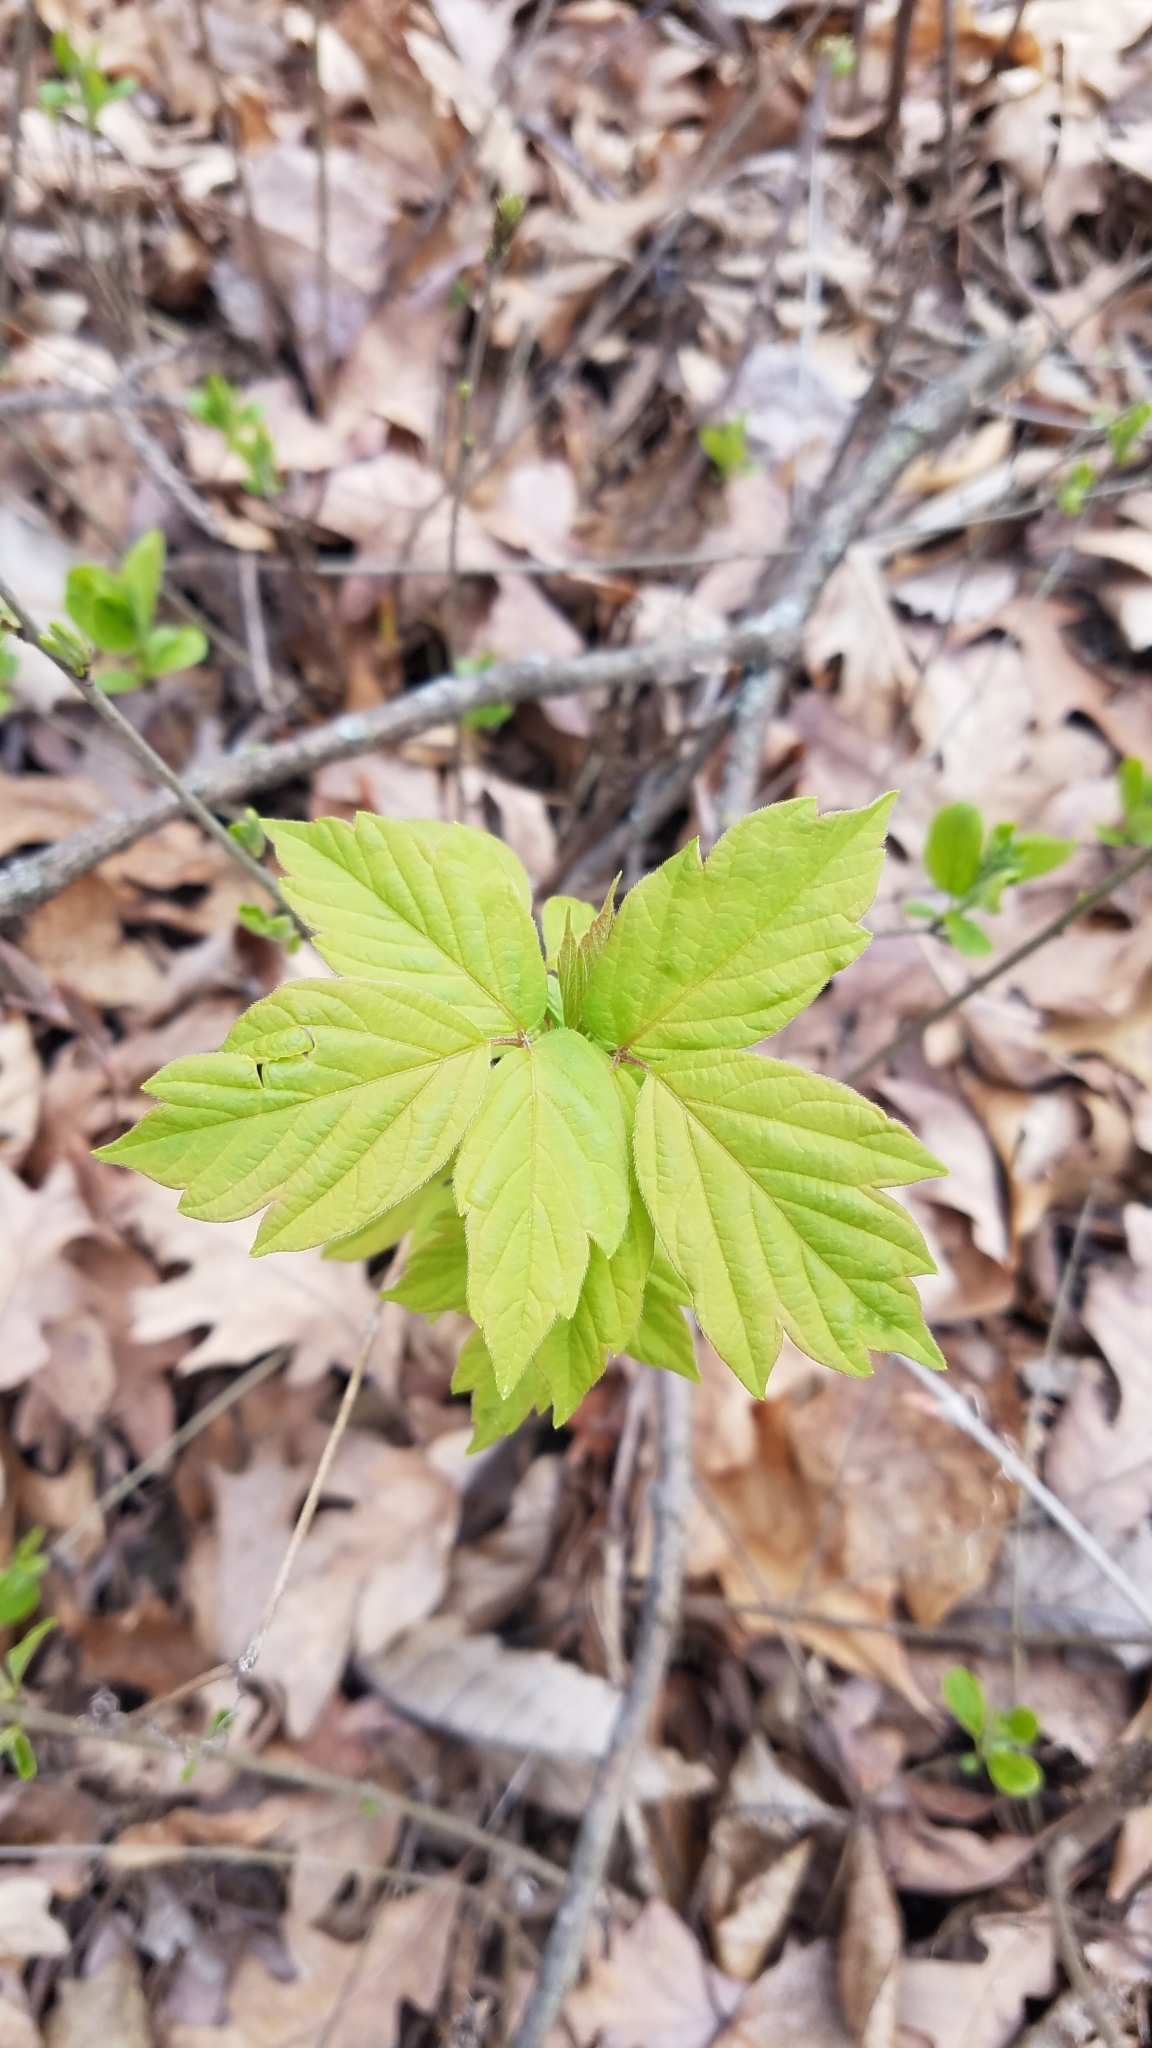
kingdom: Plantae
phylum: Tracheophyta
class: Magnoliopsida
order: Sapindales
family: Sapindaceae
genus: Acer
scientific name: Acer negundo
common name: Ashleaf maple
